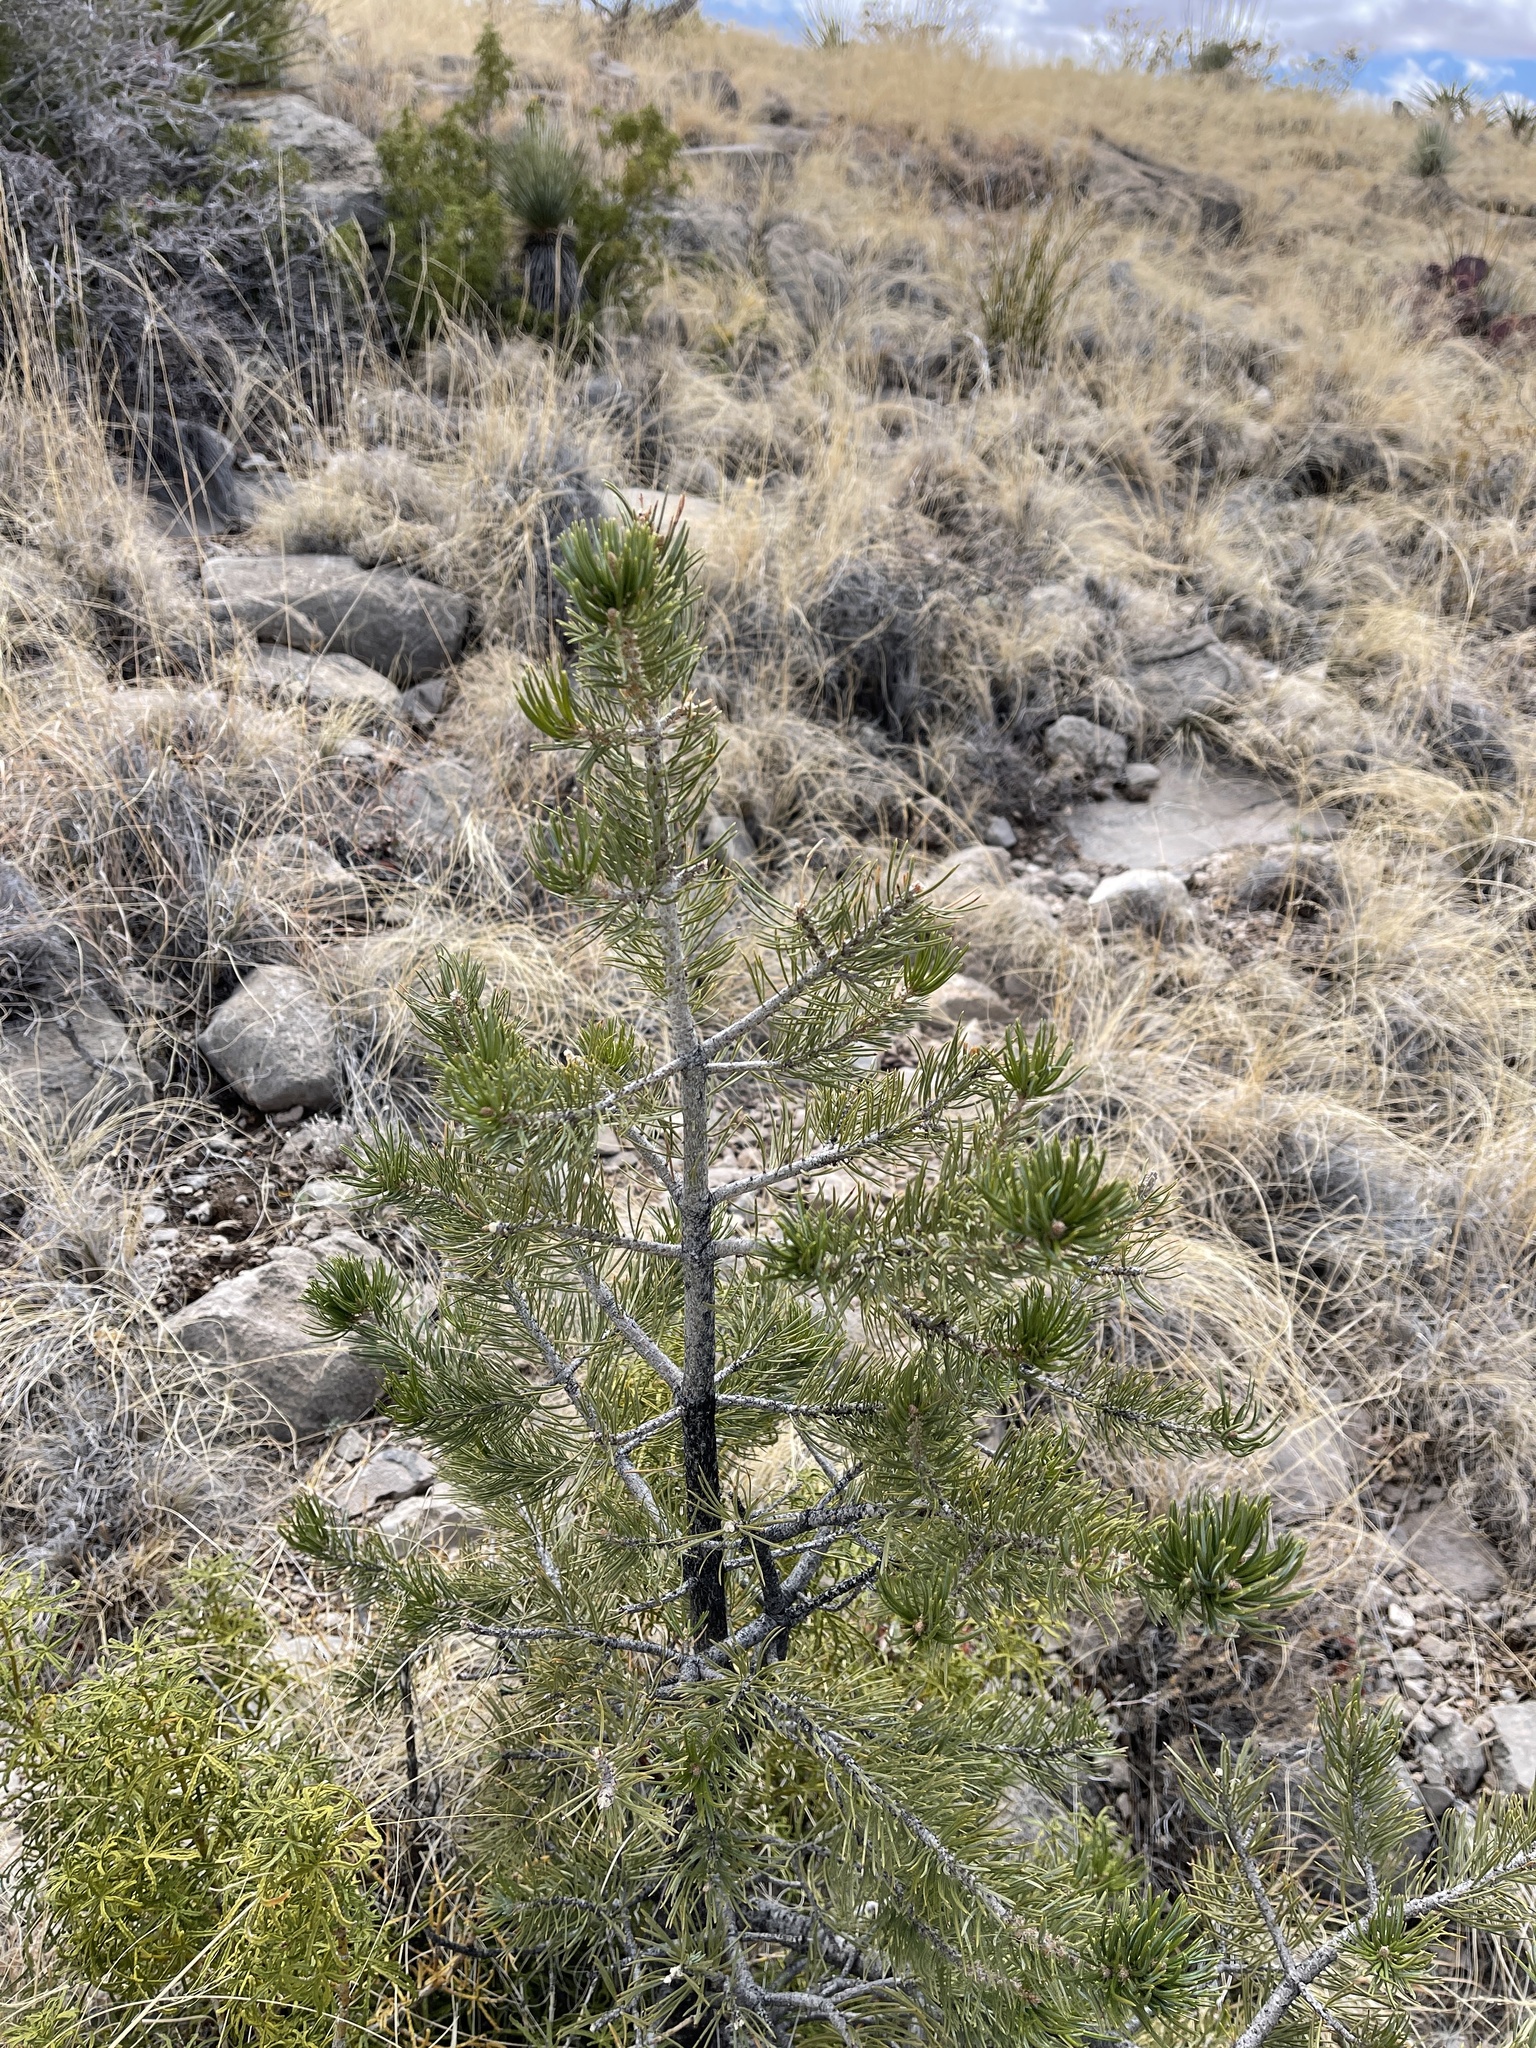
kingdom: Plantae
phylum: Tracheophyta
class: Pinopsida
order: Pinales
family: Pinaceae
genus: Pinus
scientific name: Pinus edulis
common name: Colorado pinyon
